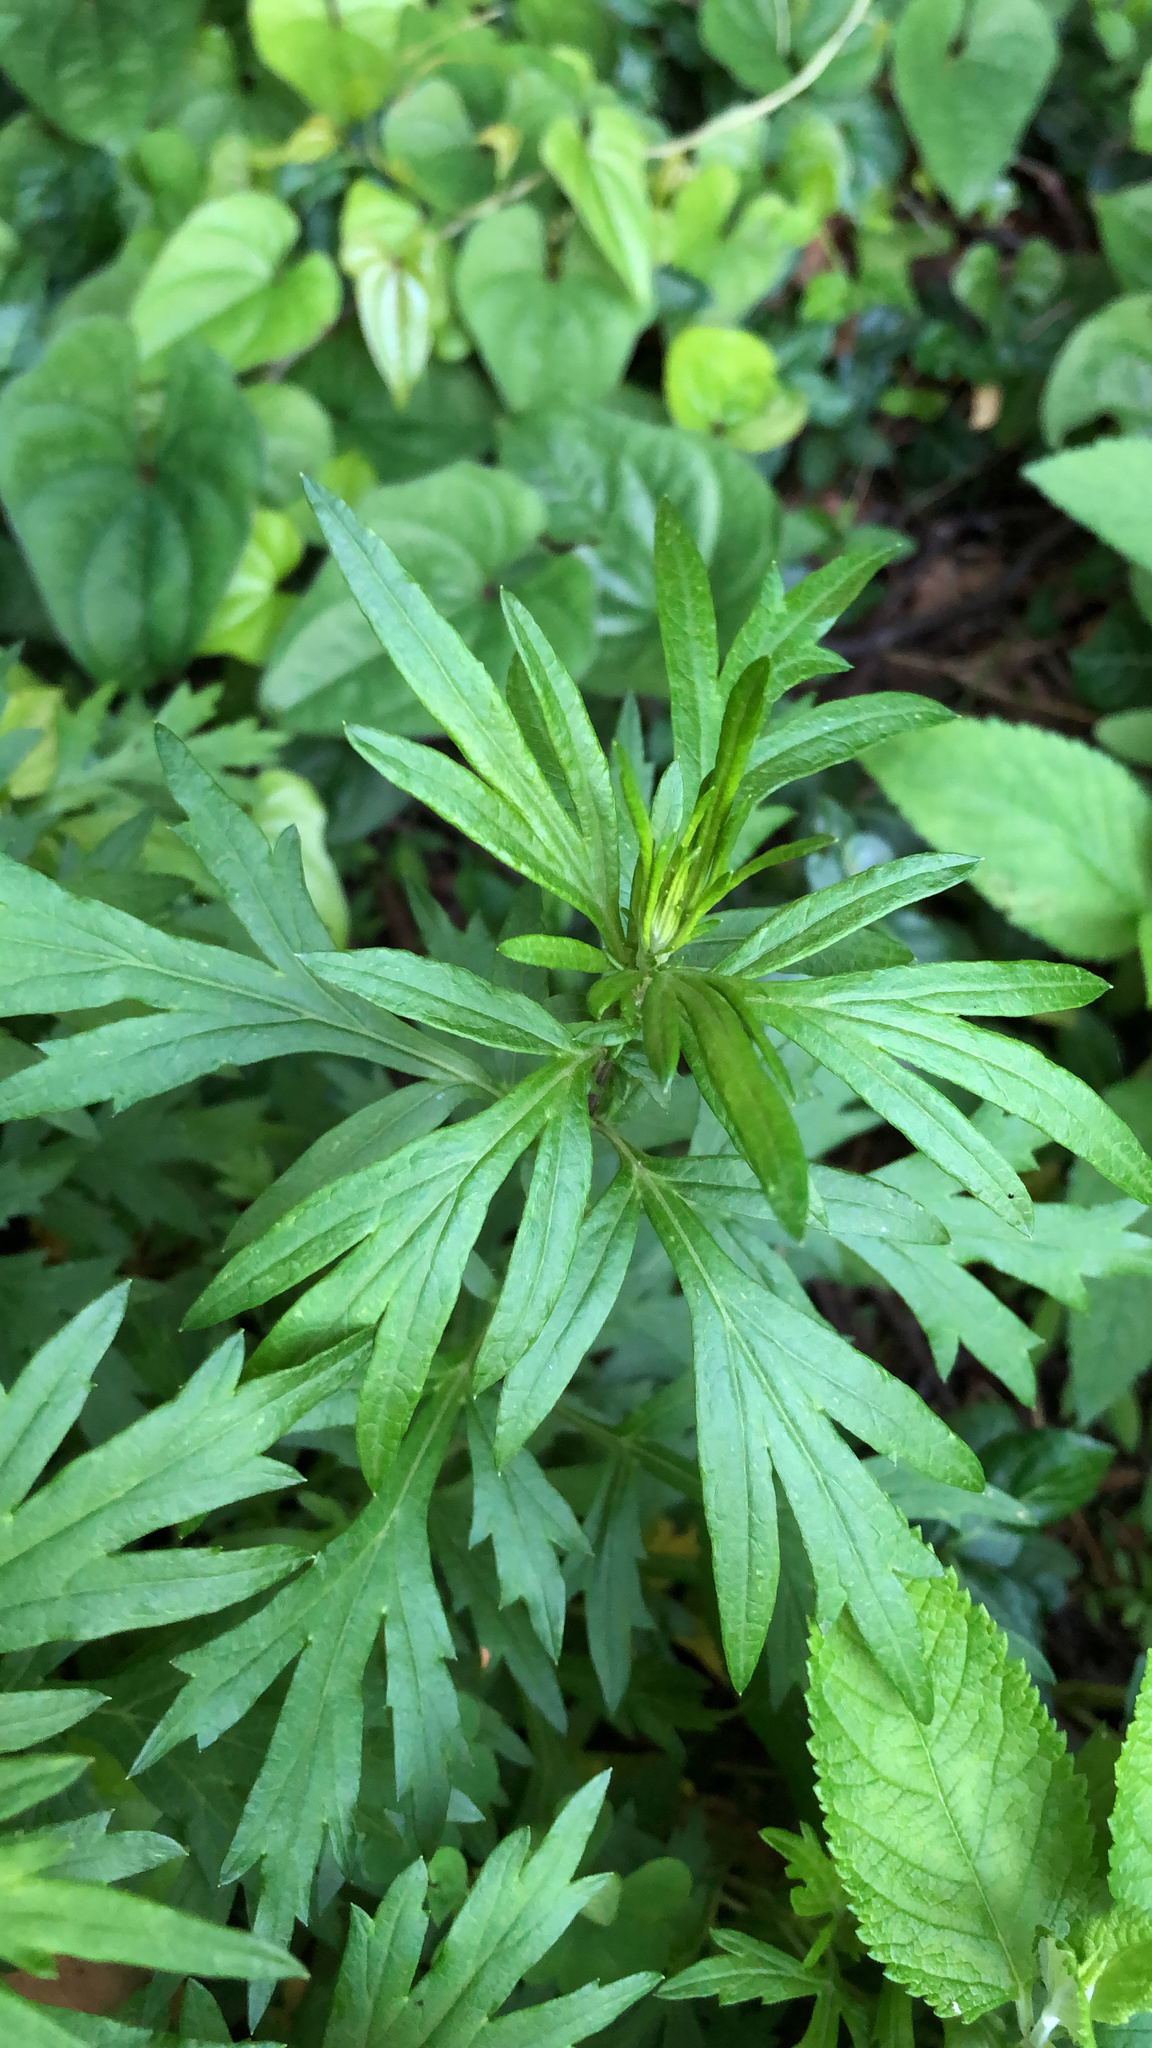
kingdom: Plantae
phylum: Tracheophyta
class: Magnoliopsida
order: Asterales
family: Asteraceae
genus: Artemisia
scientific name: Artemisia vulgaris
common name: Mugwort
